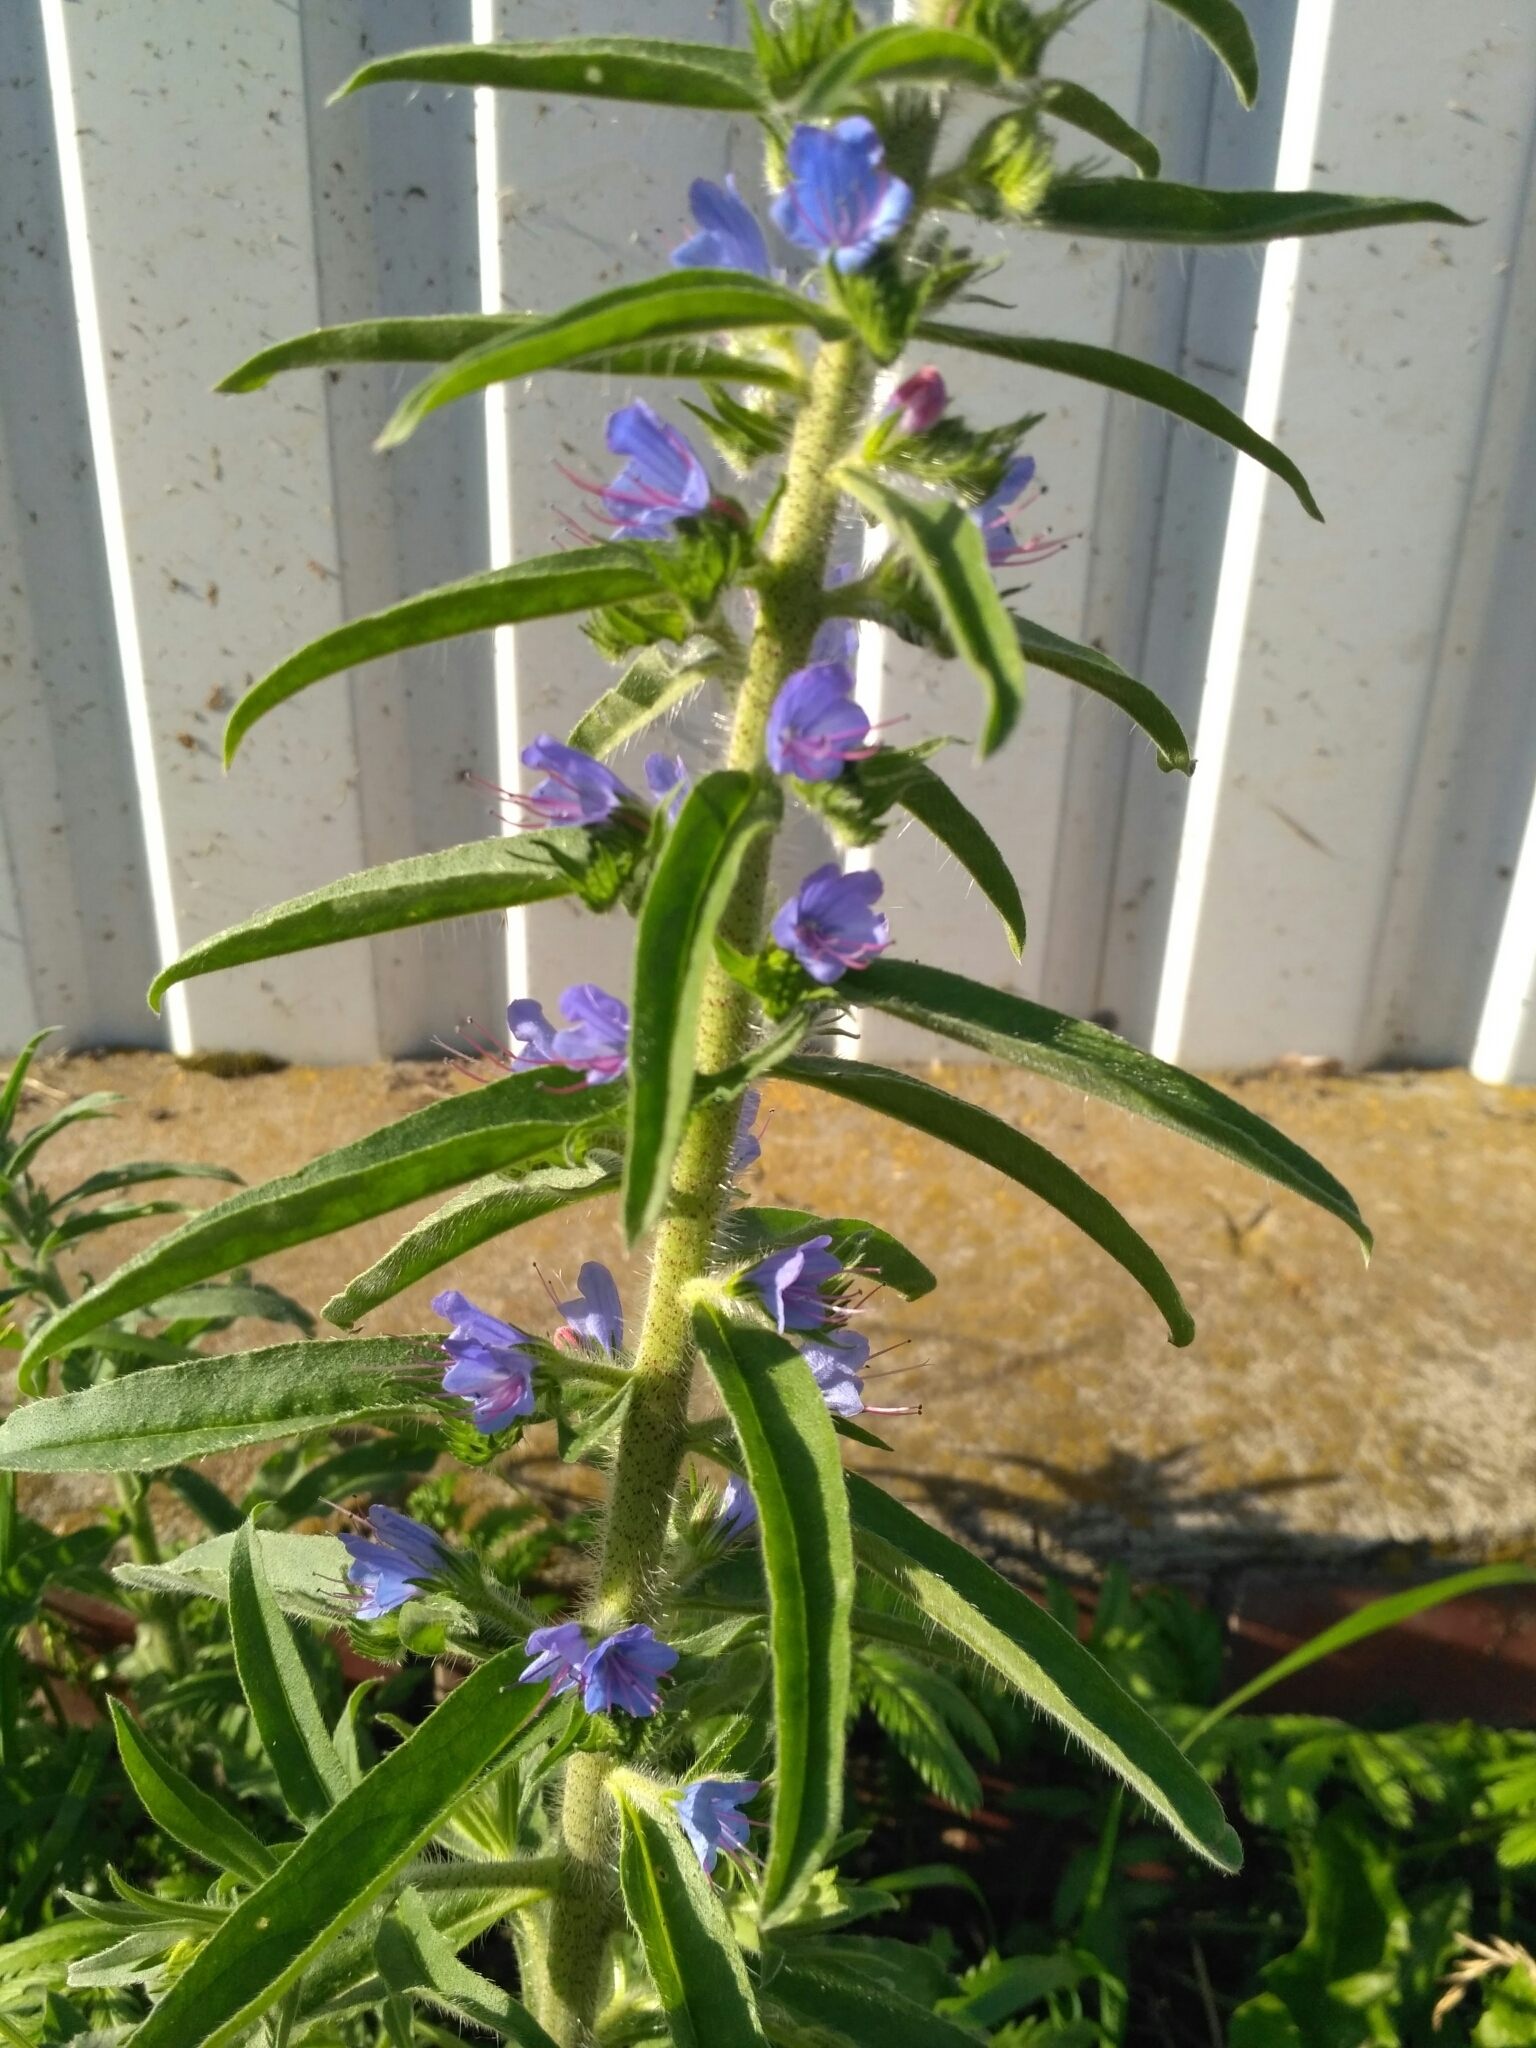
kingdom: Plantae
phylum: Tracheophyta
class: Magnoliopsida
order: Boraginales
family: Boraginaceae
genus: Echium
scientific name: Echium vulgare
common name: Common viper's bugloss
